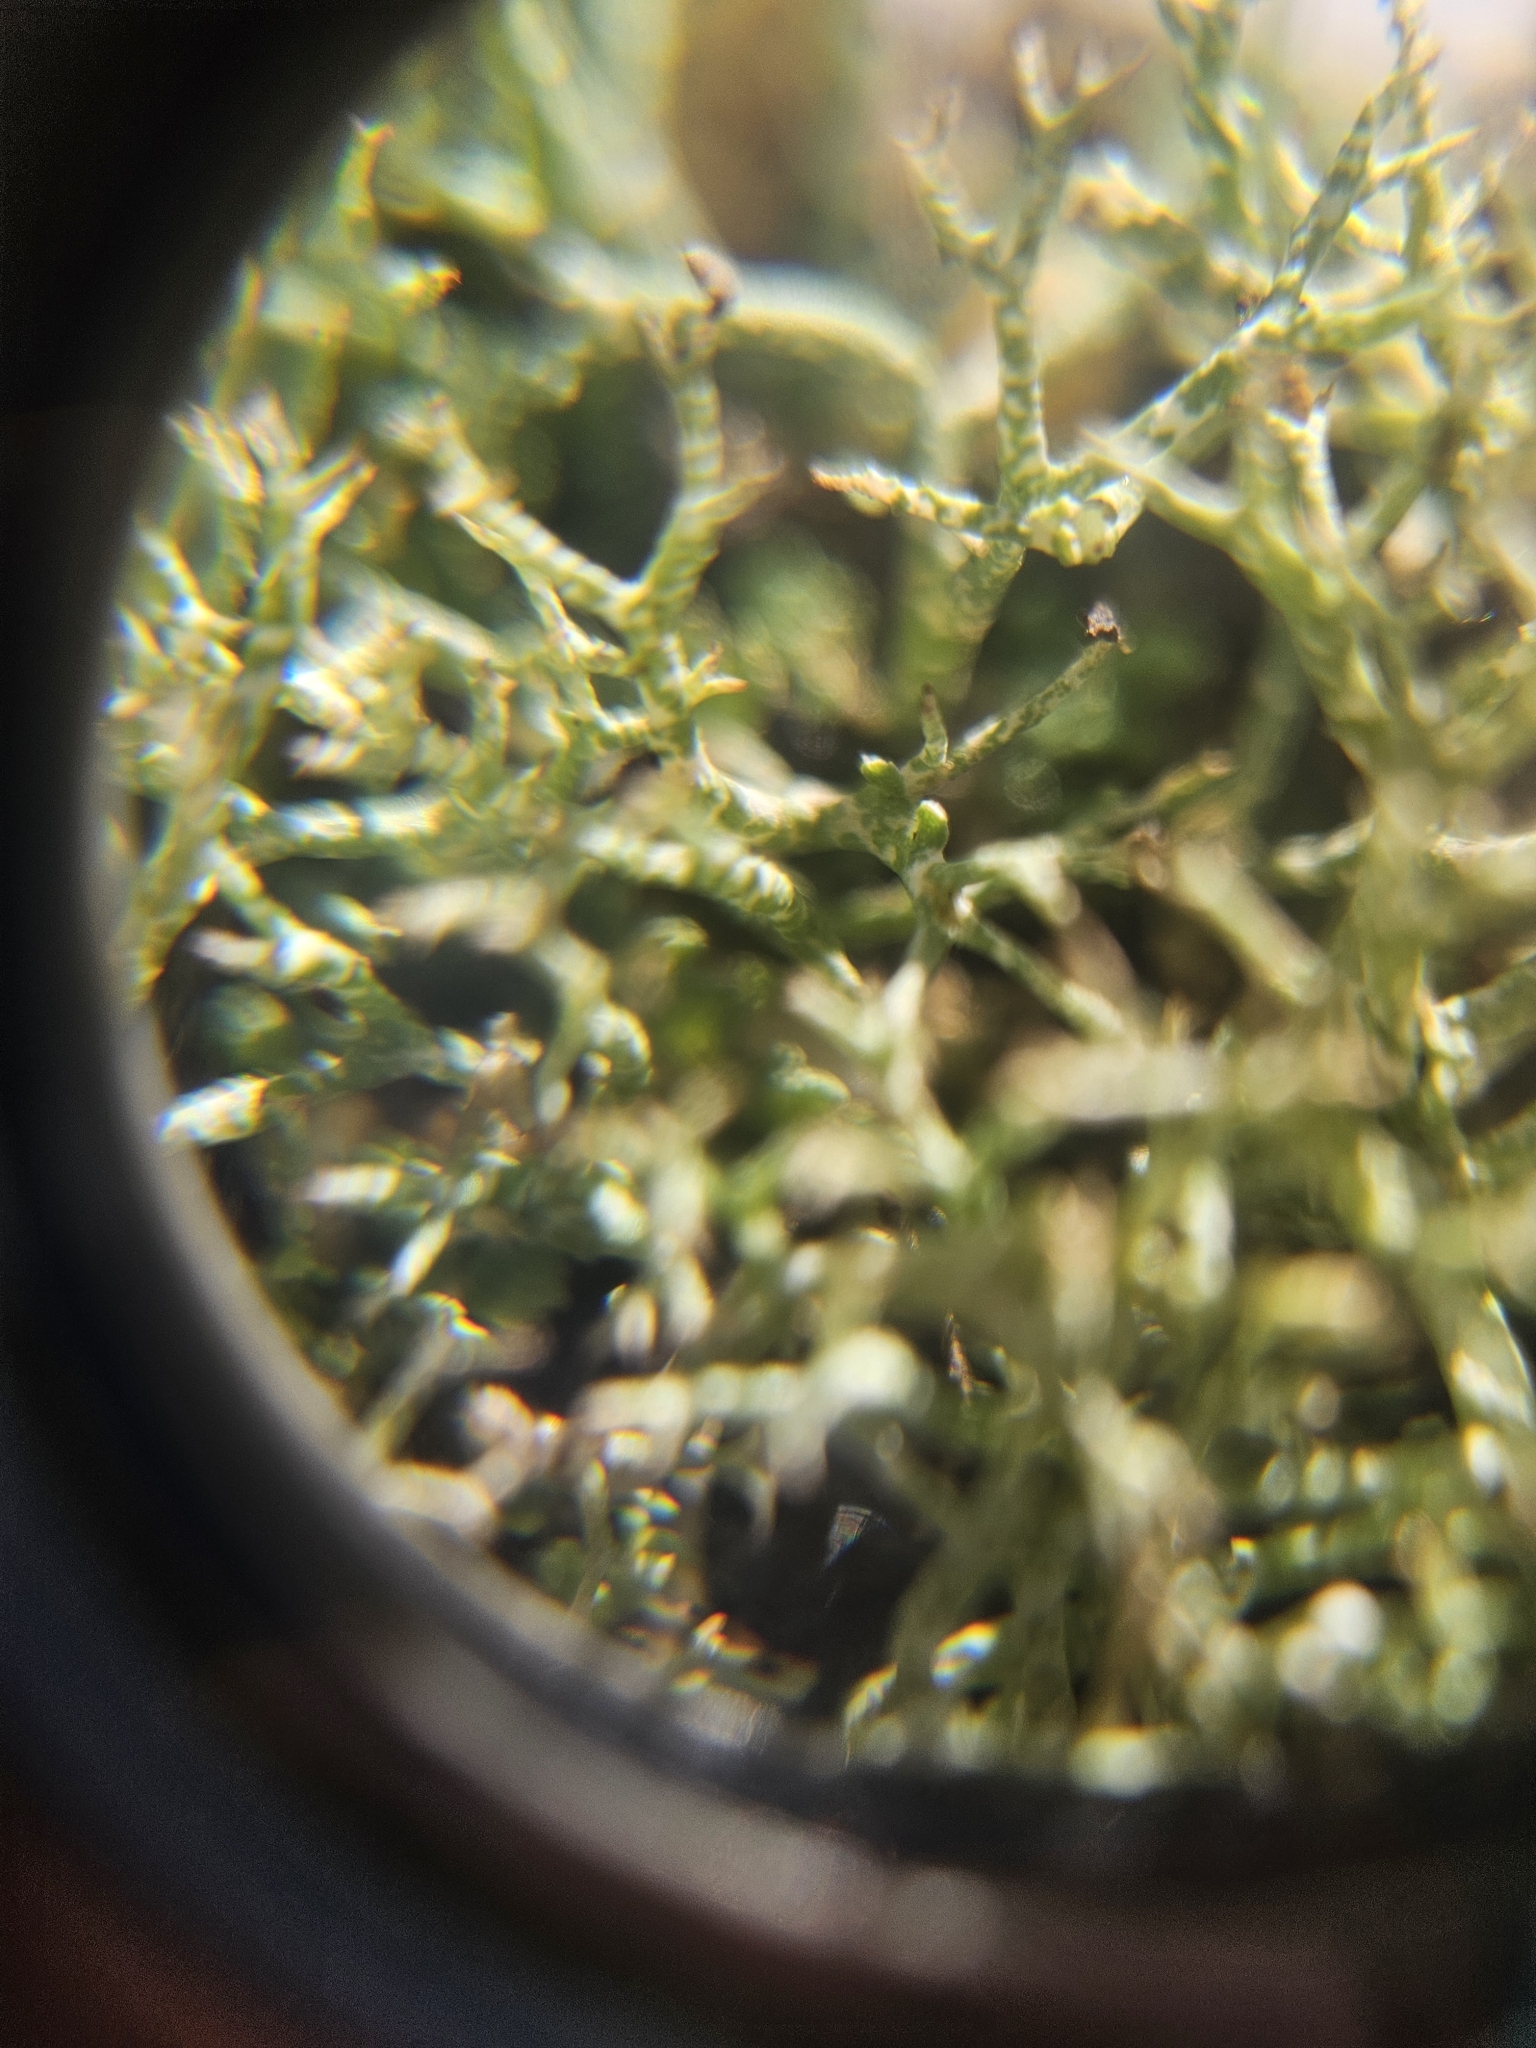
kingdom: Fungi
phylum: Ascomycota
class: Lecanoromycetes
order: Lecanorales
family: Cladoniaceae
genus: Cladonia
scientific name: Cladonia rangiformis
